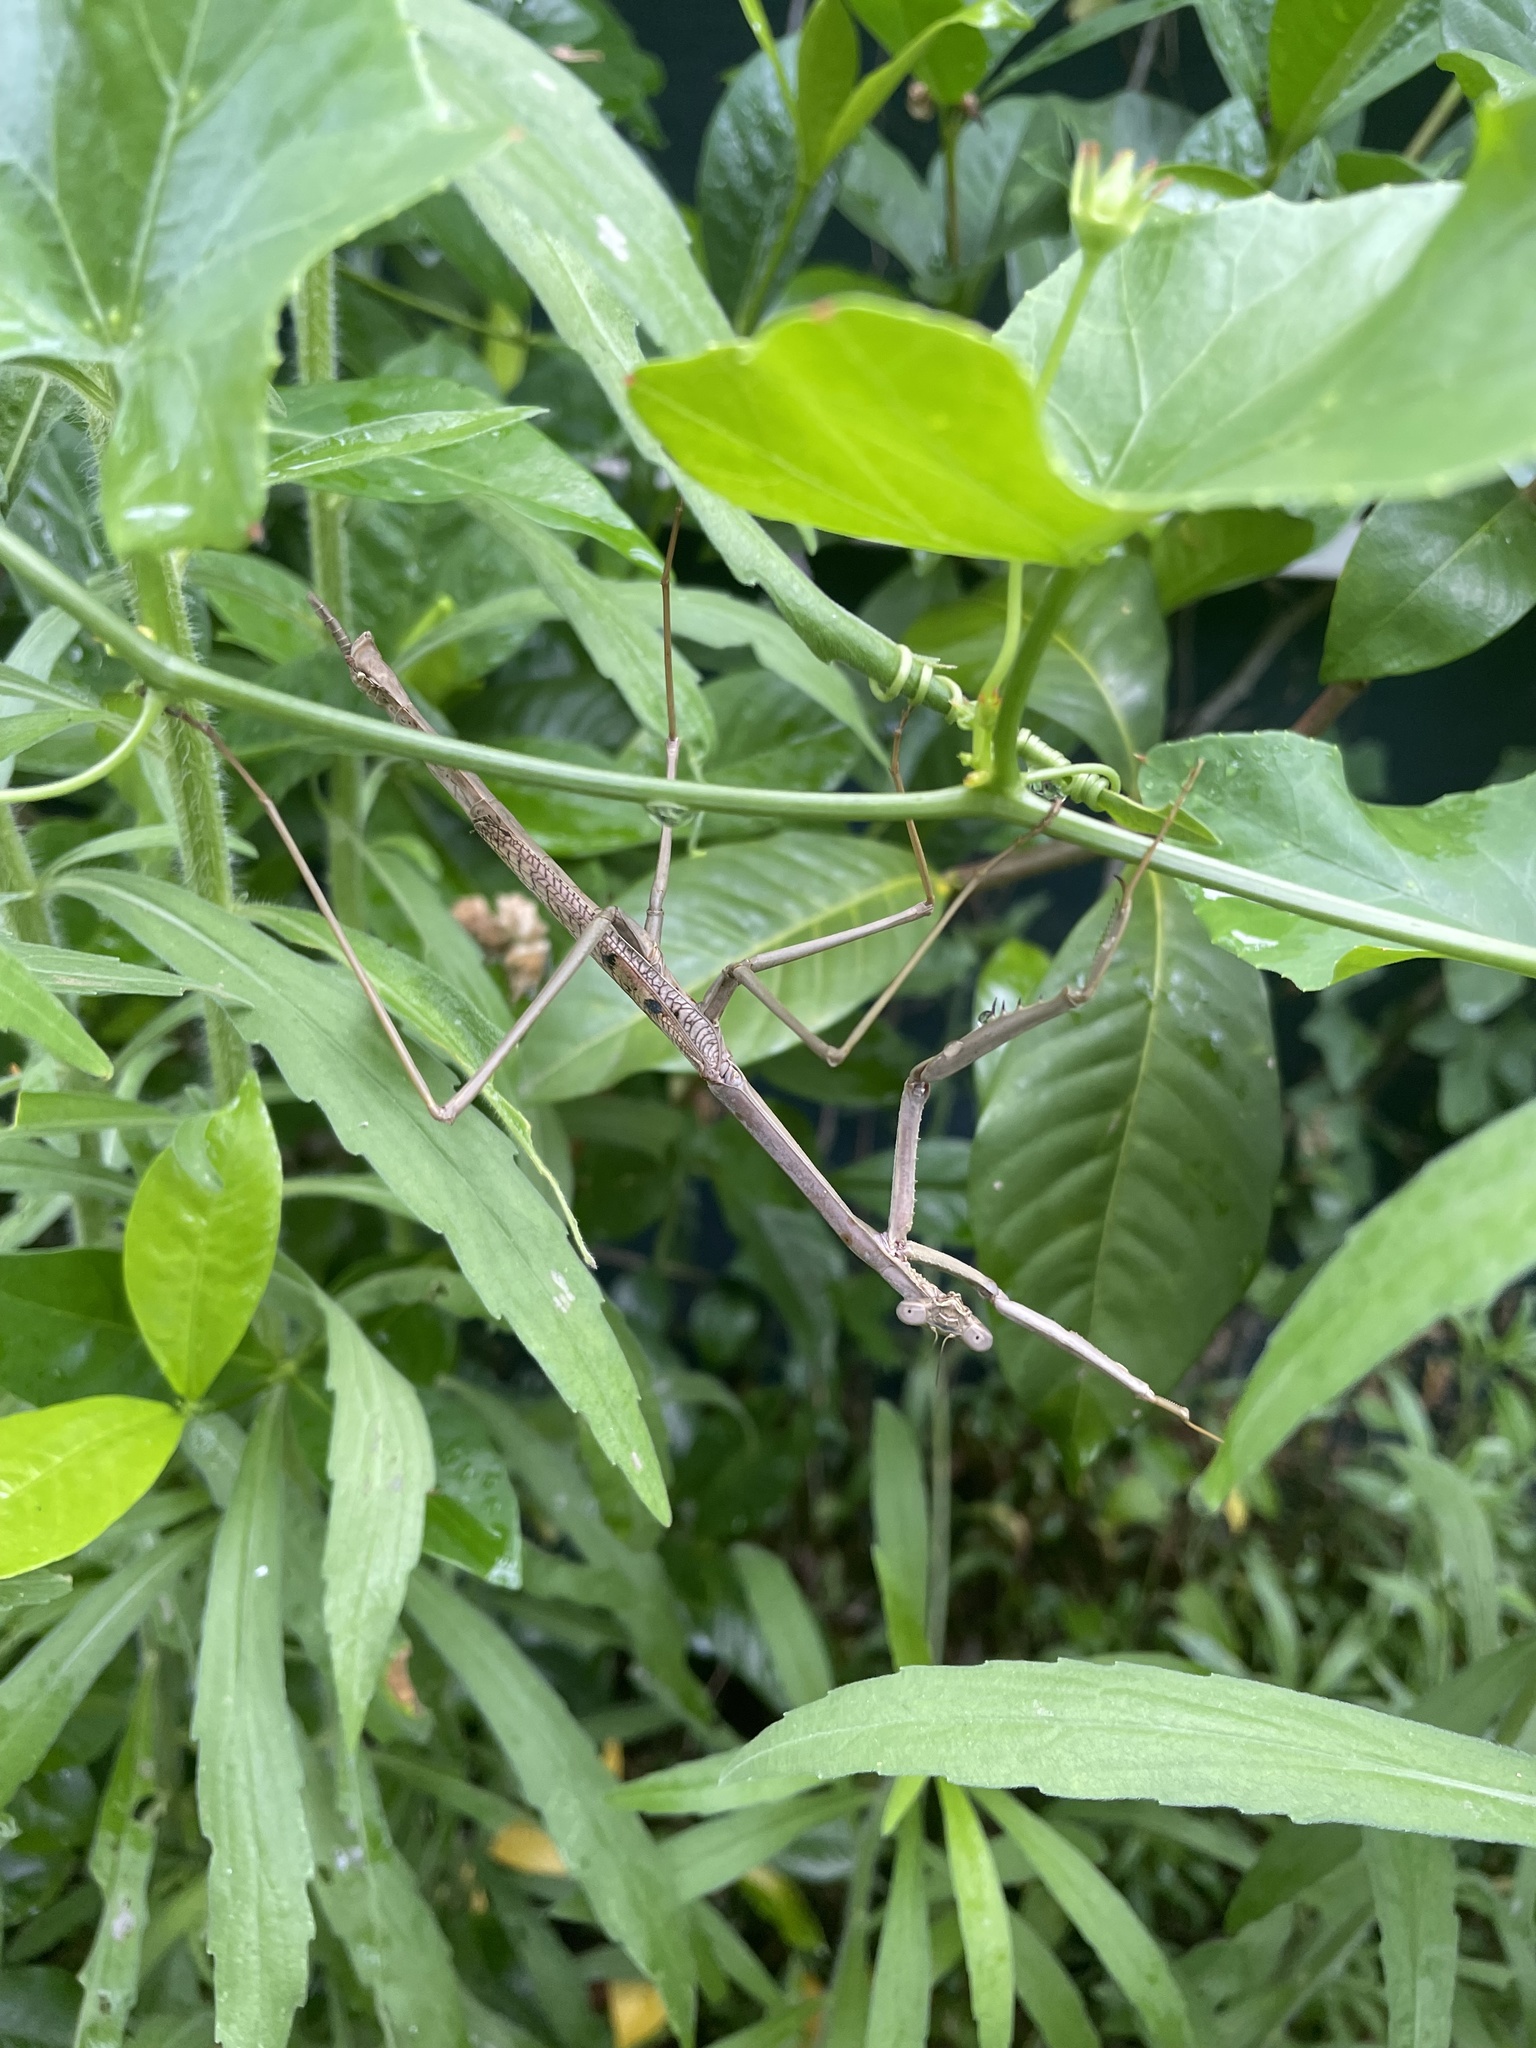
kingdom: Animalia
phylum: Arthropoda
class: Insecta
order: Mantodea
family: Mantidae
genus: Archimantis
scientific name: Archimantis latistyla
